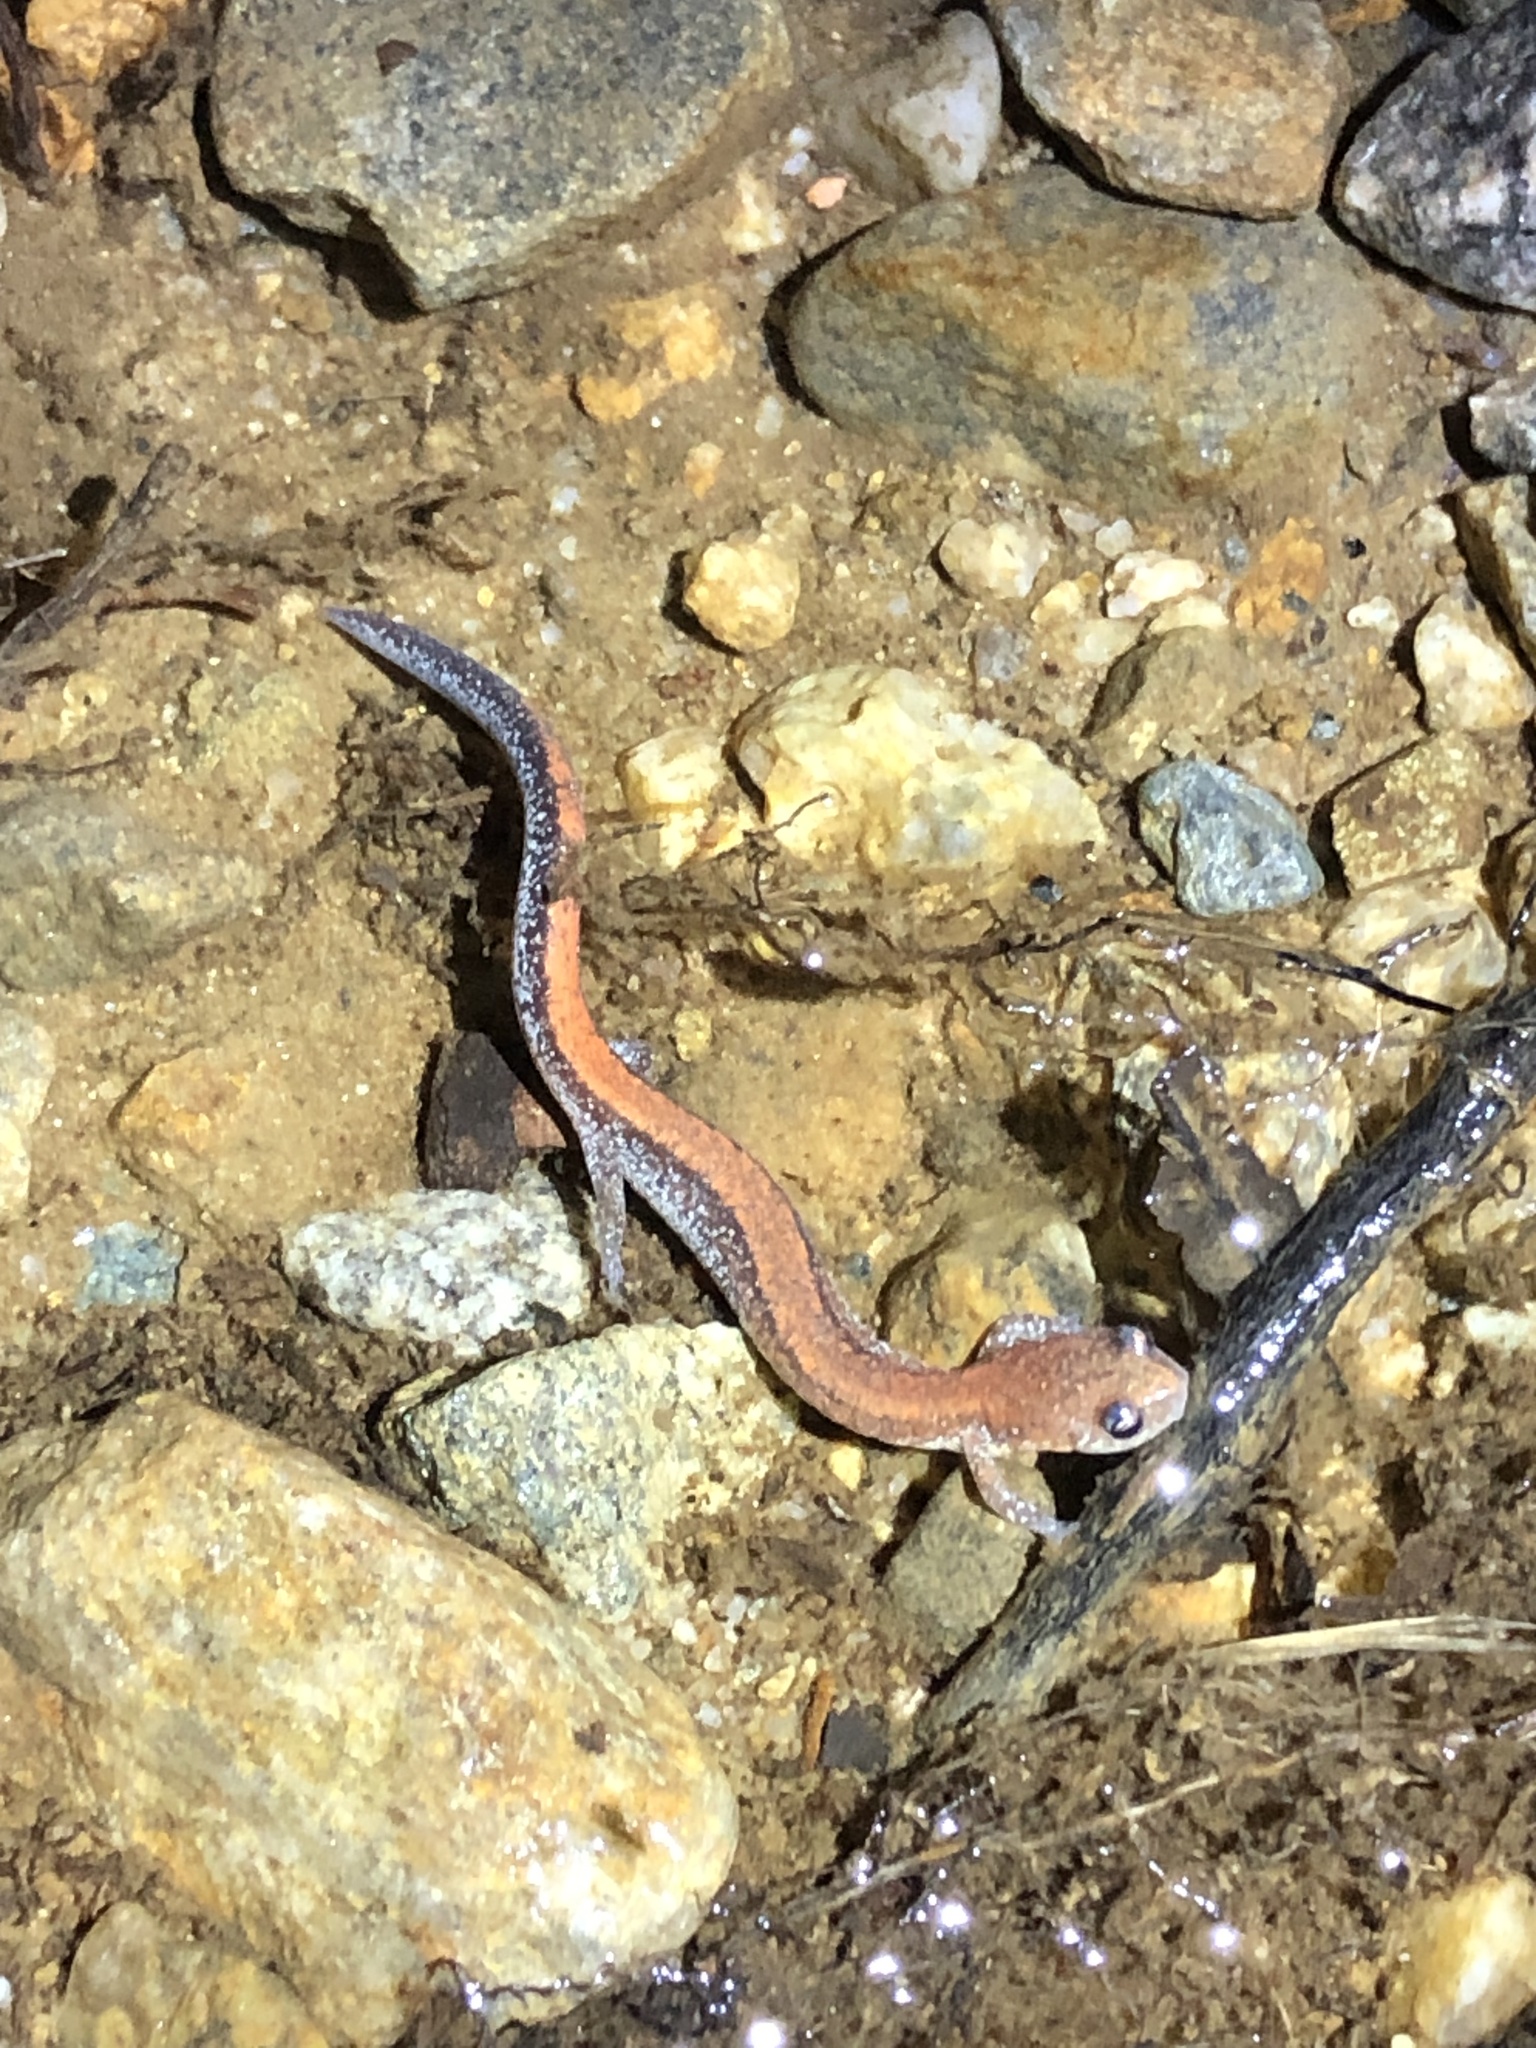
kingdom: Animalia
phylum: Chordata
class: Amphibia
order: Caudata
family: Plethodontidae
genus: Plethodon
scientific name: Plethodon cinereus
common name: Redback salamander
